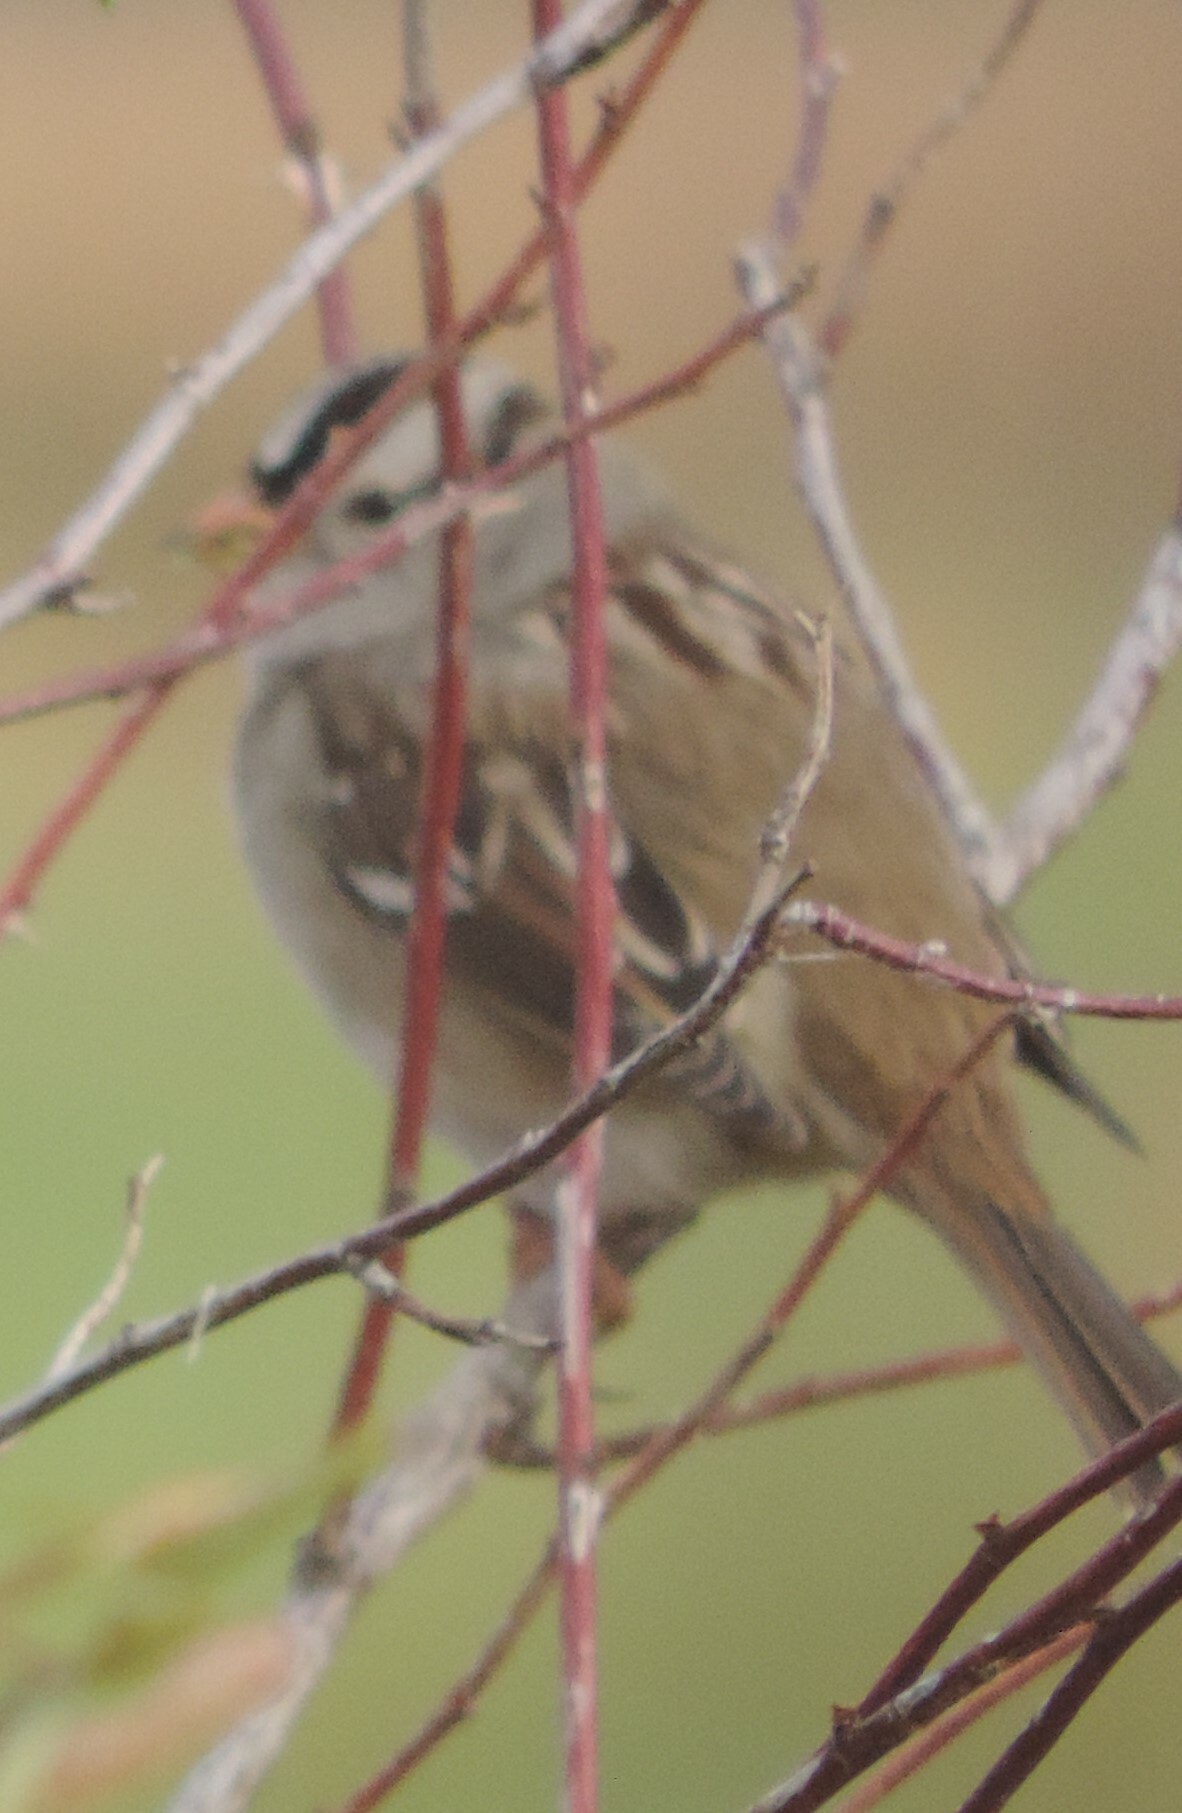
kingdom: Animalia
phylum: Chordata
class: Aves
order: Passeriformes
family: Passerellidae
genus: Zonotrichia
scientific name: Zonotrichia leucophrys
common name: White-crowned sparrow
